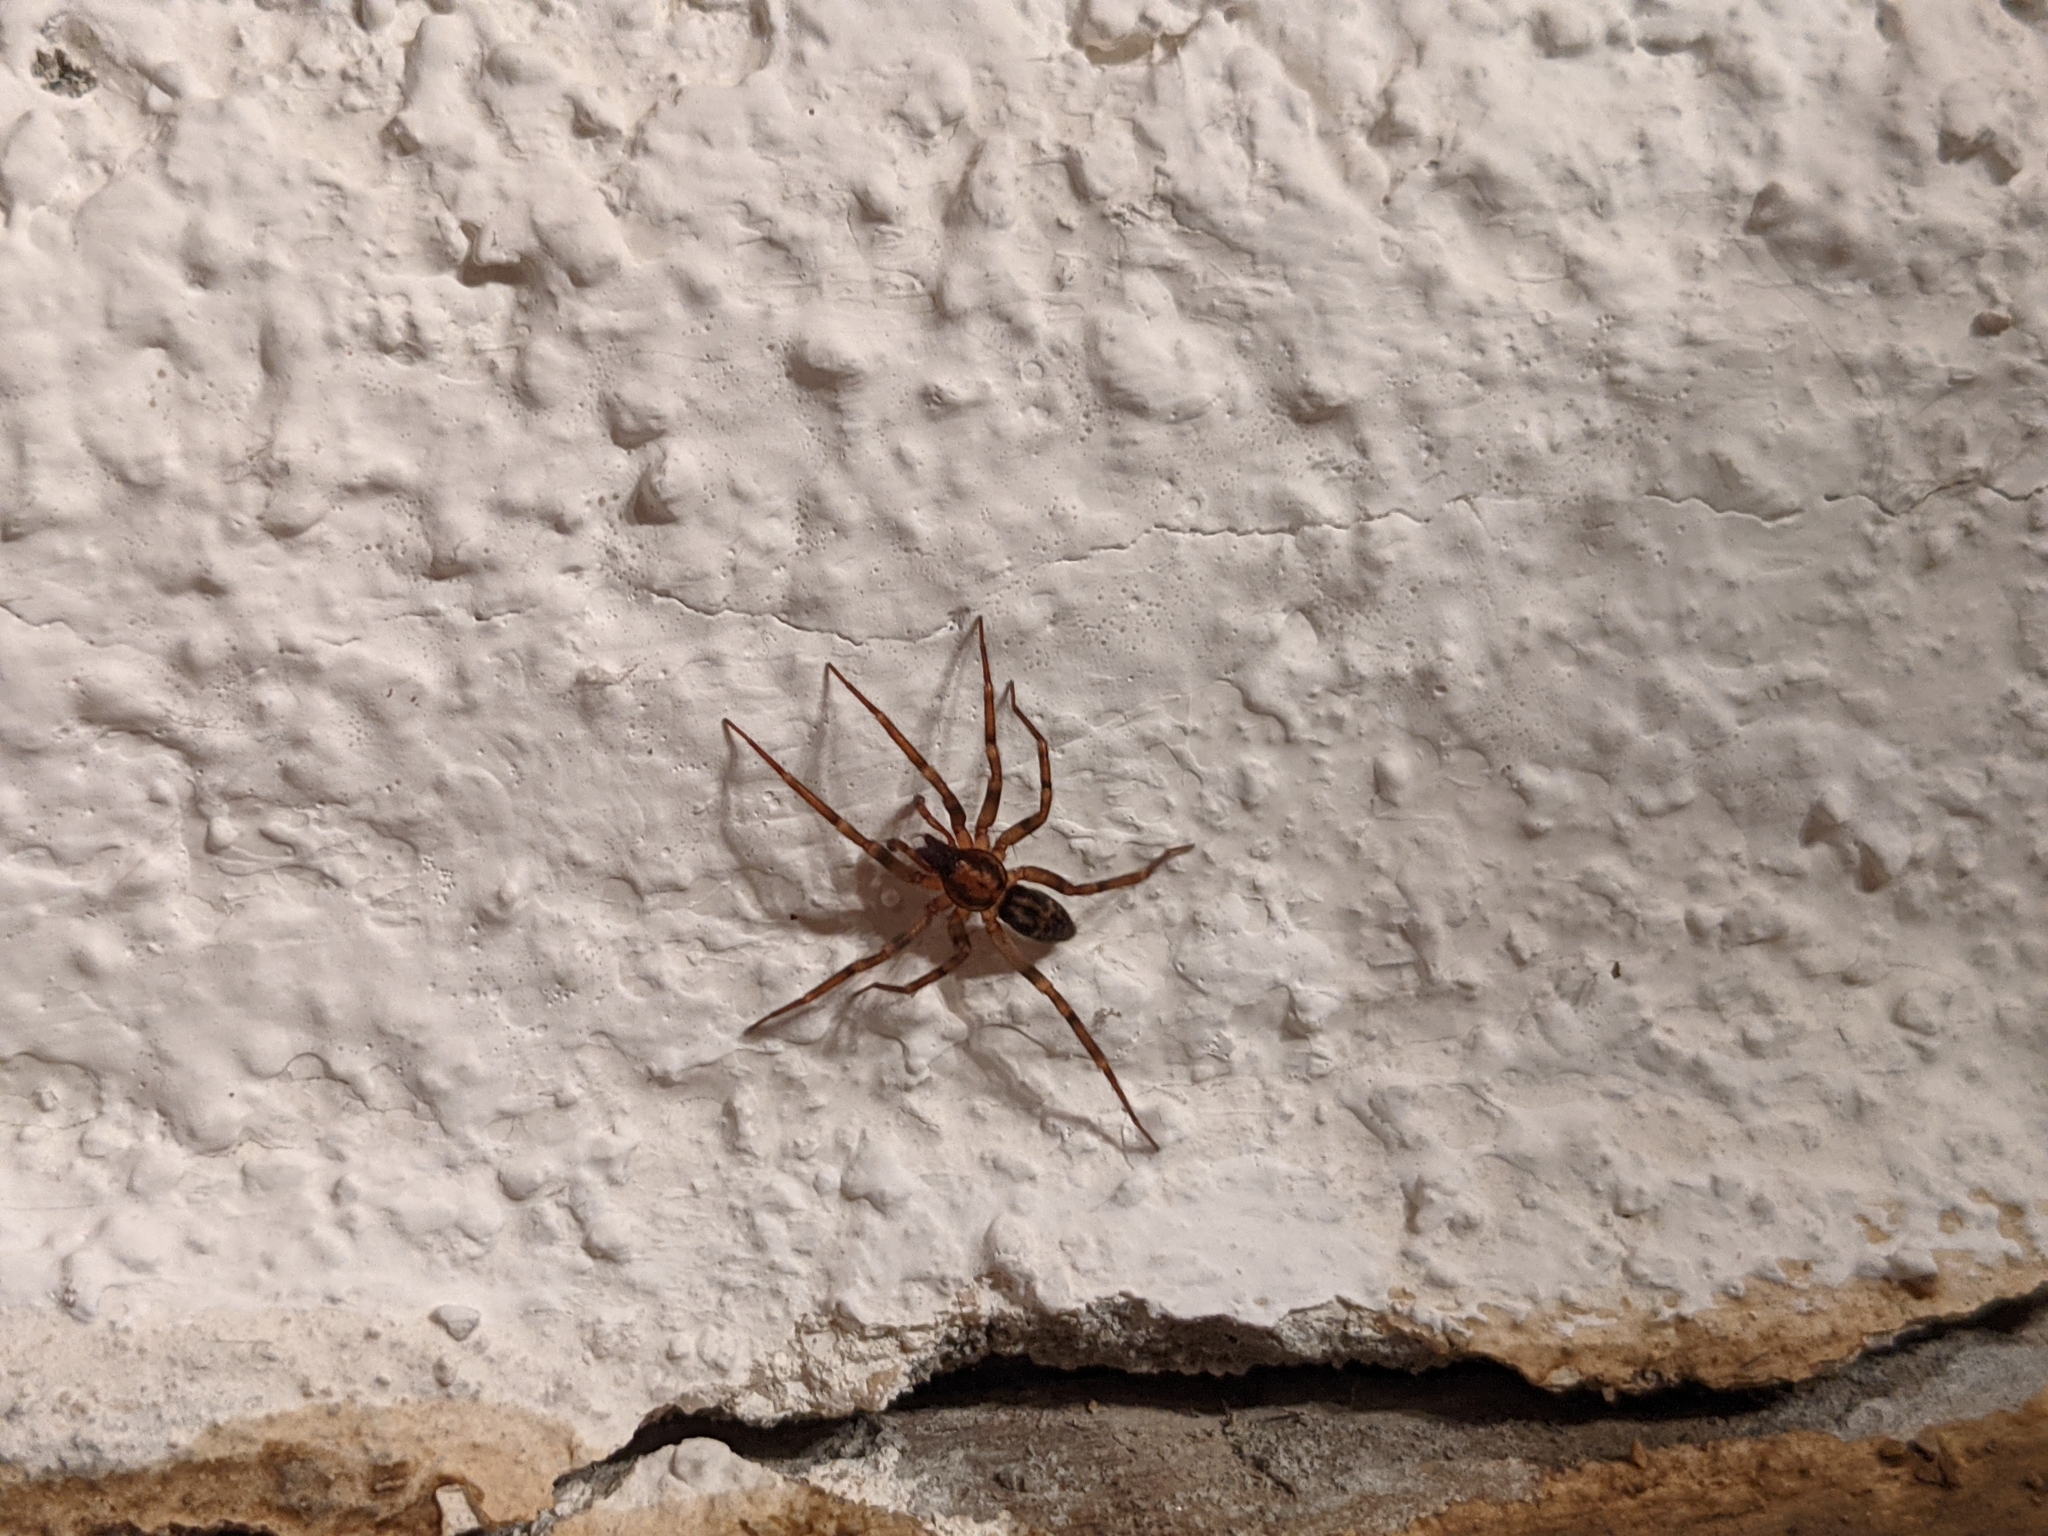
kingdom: Animalia
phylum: Arthropoda
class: Arachnida
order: Araneae
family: Liocranidae
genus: Liocranum
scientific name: Liocranum rupicola
